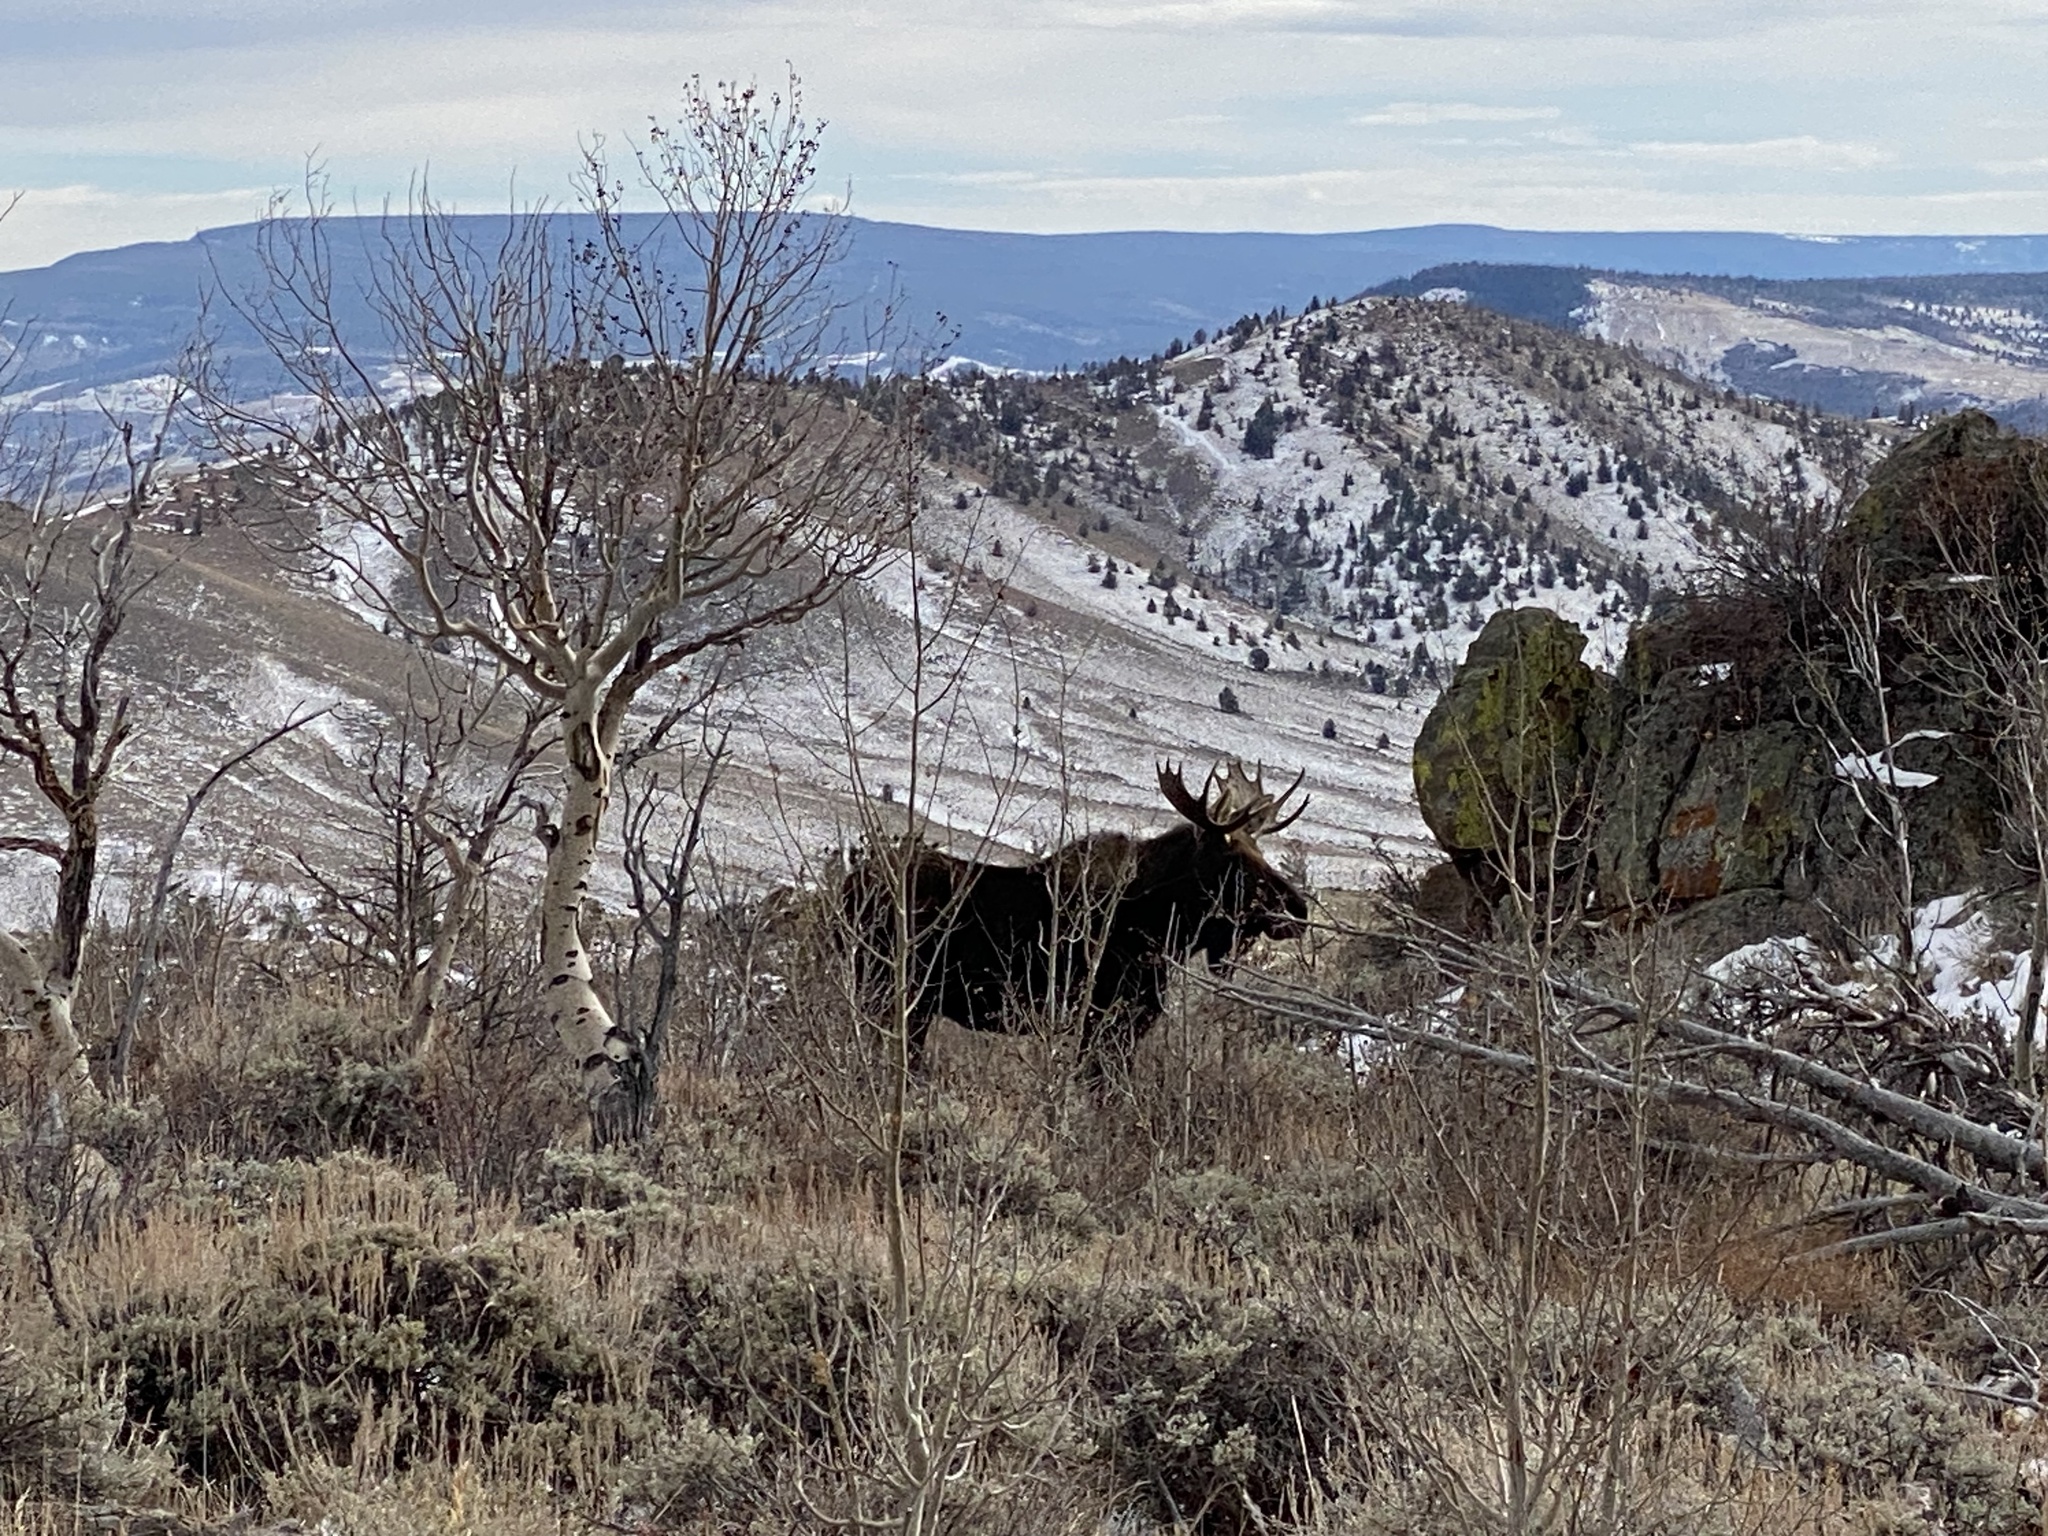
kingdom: Animalia
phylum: Chordata
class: Mammalia
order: Artiodactyla
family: Cervidae
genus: Alces
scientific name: Alces alces
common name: Moose
